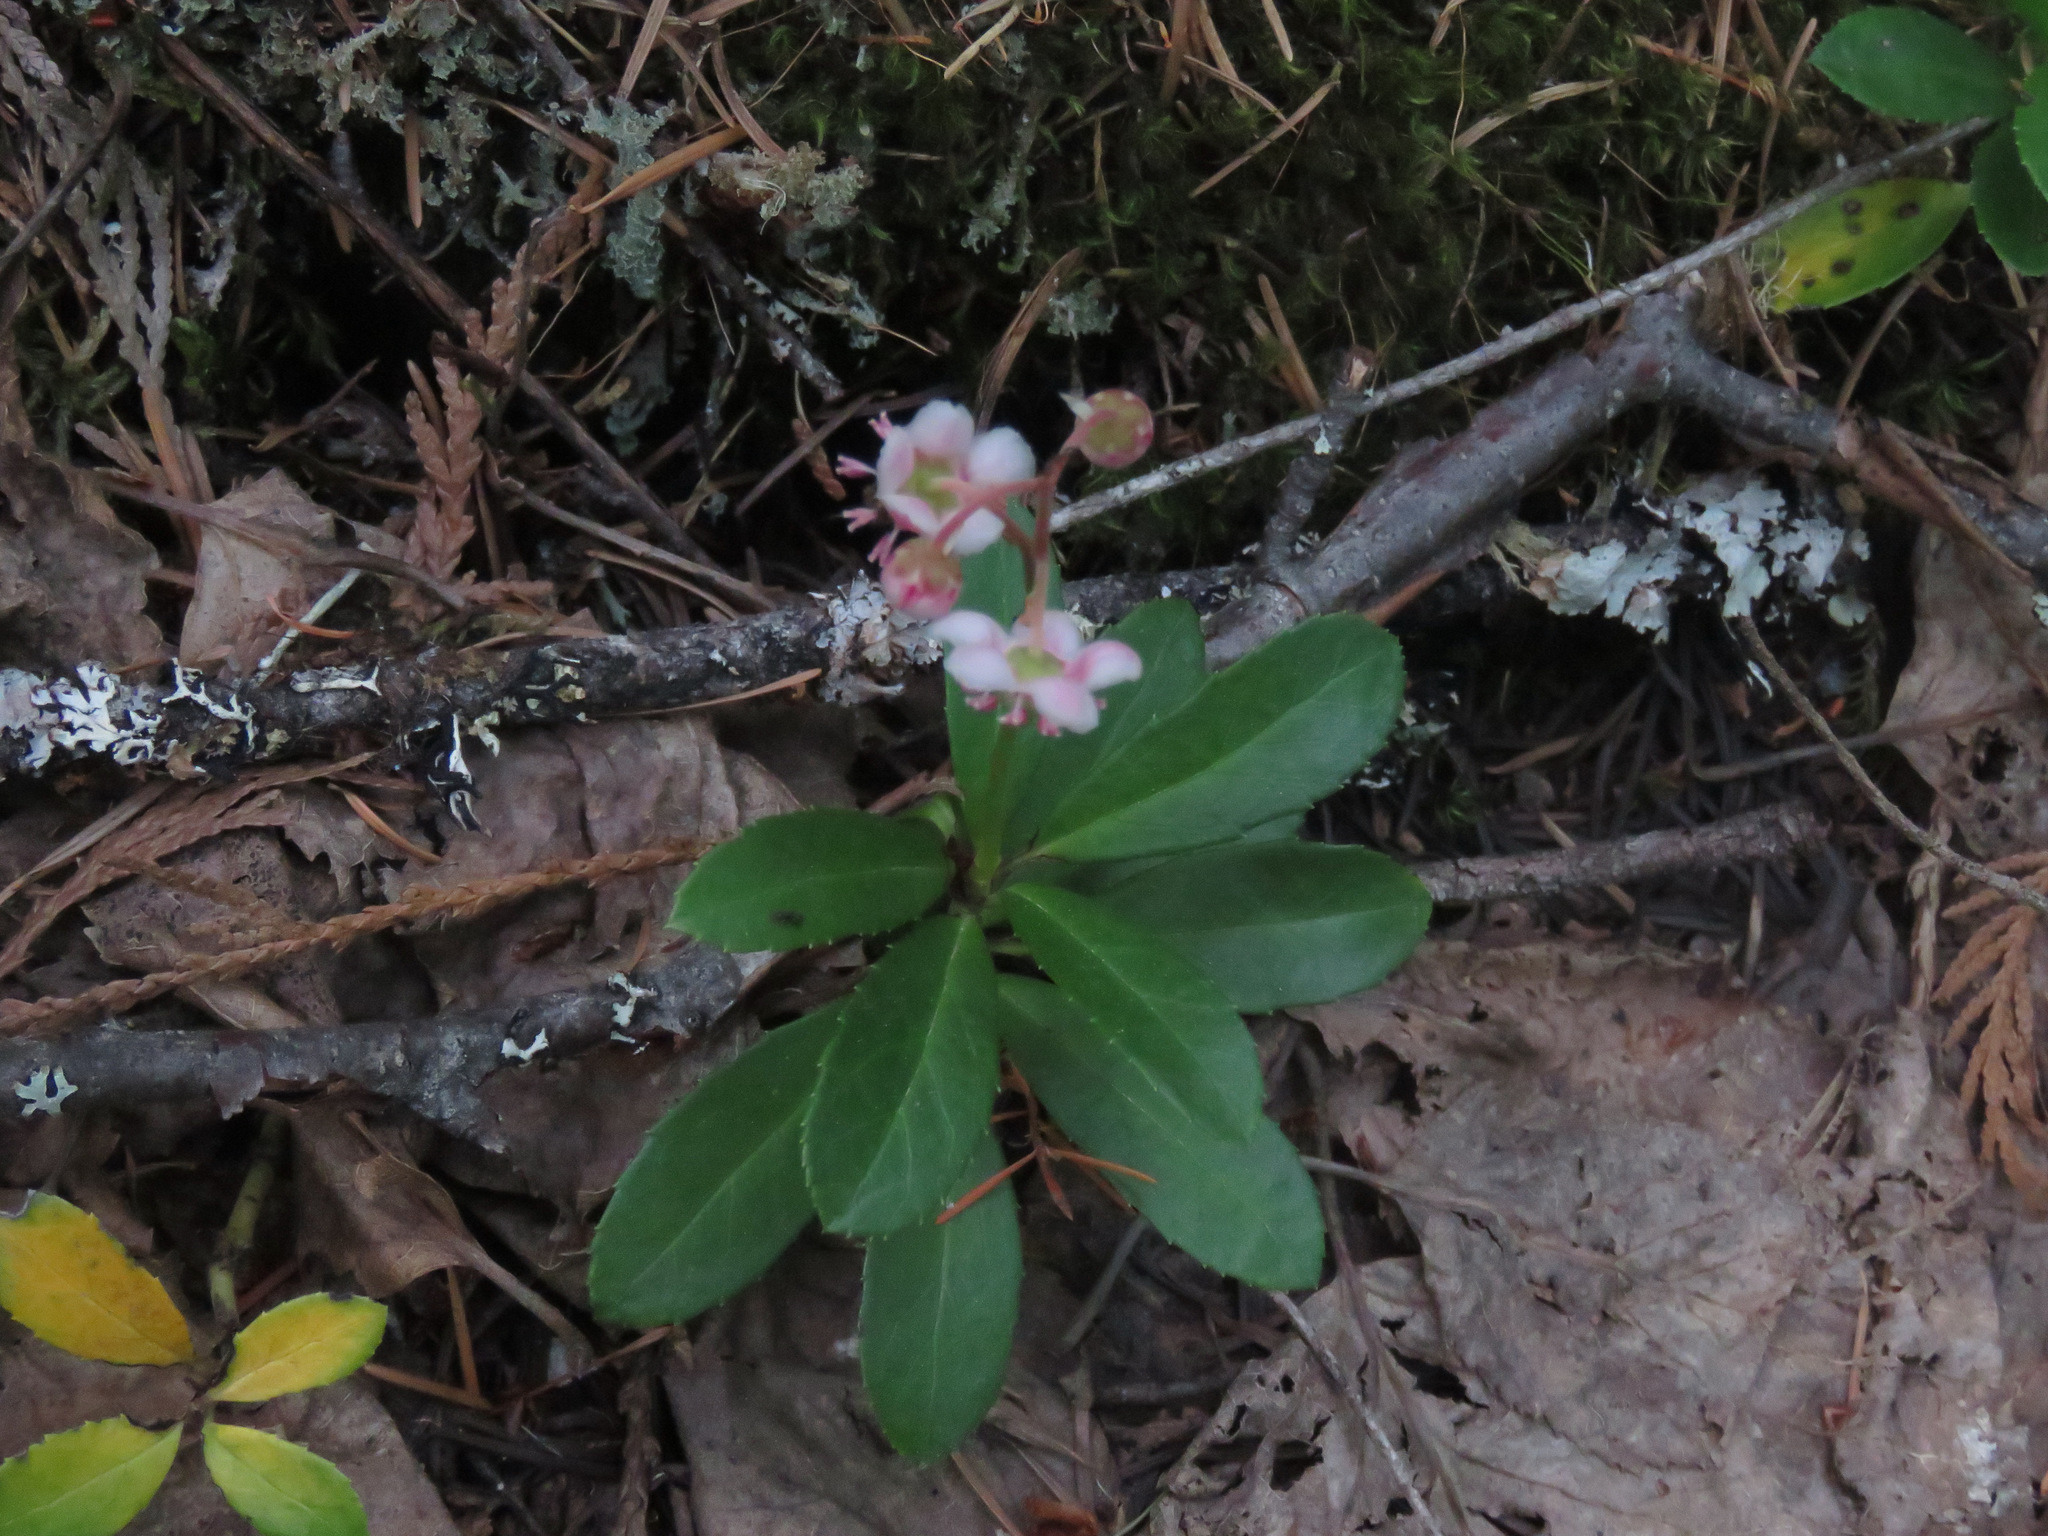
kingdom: Plantae
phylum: Tracheophyta
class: Magnoliopsida
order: Ericales
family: Ericaceae
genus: Chimaphila
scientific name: Chimaphila umbellata
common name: Pipsissewa
